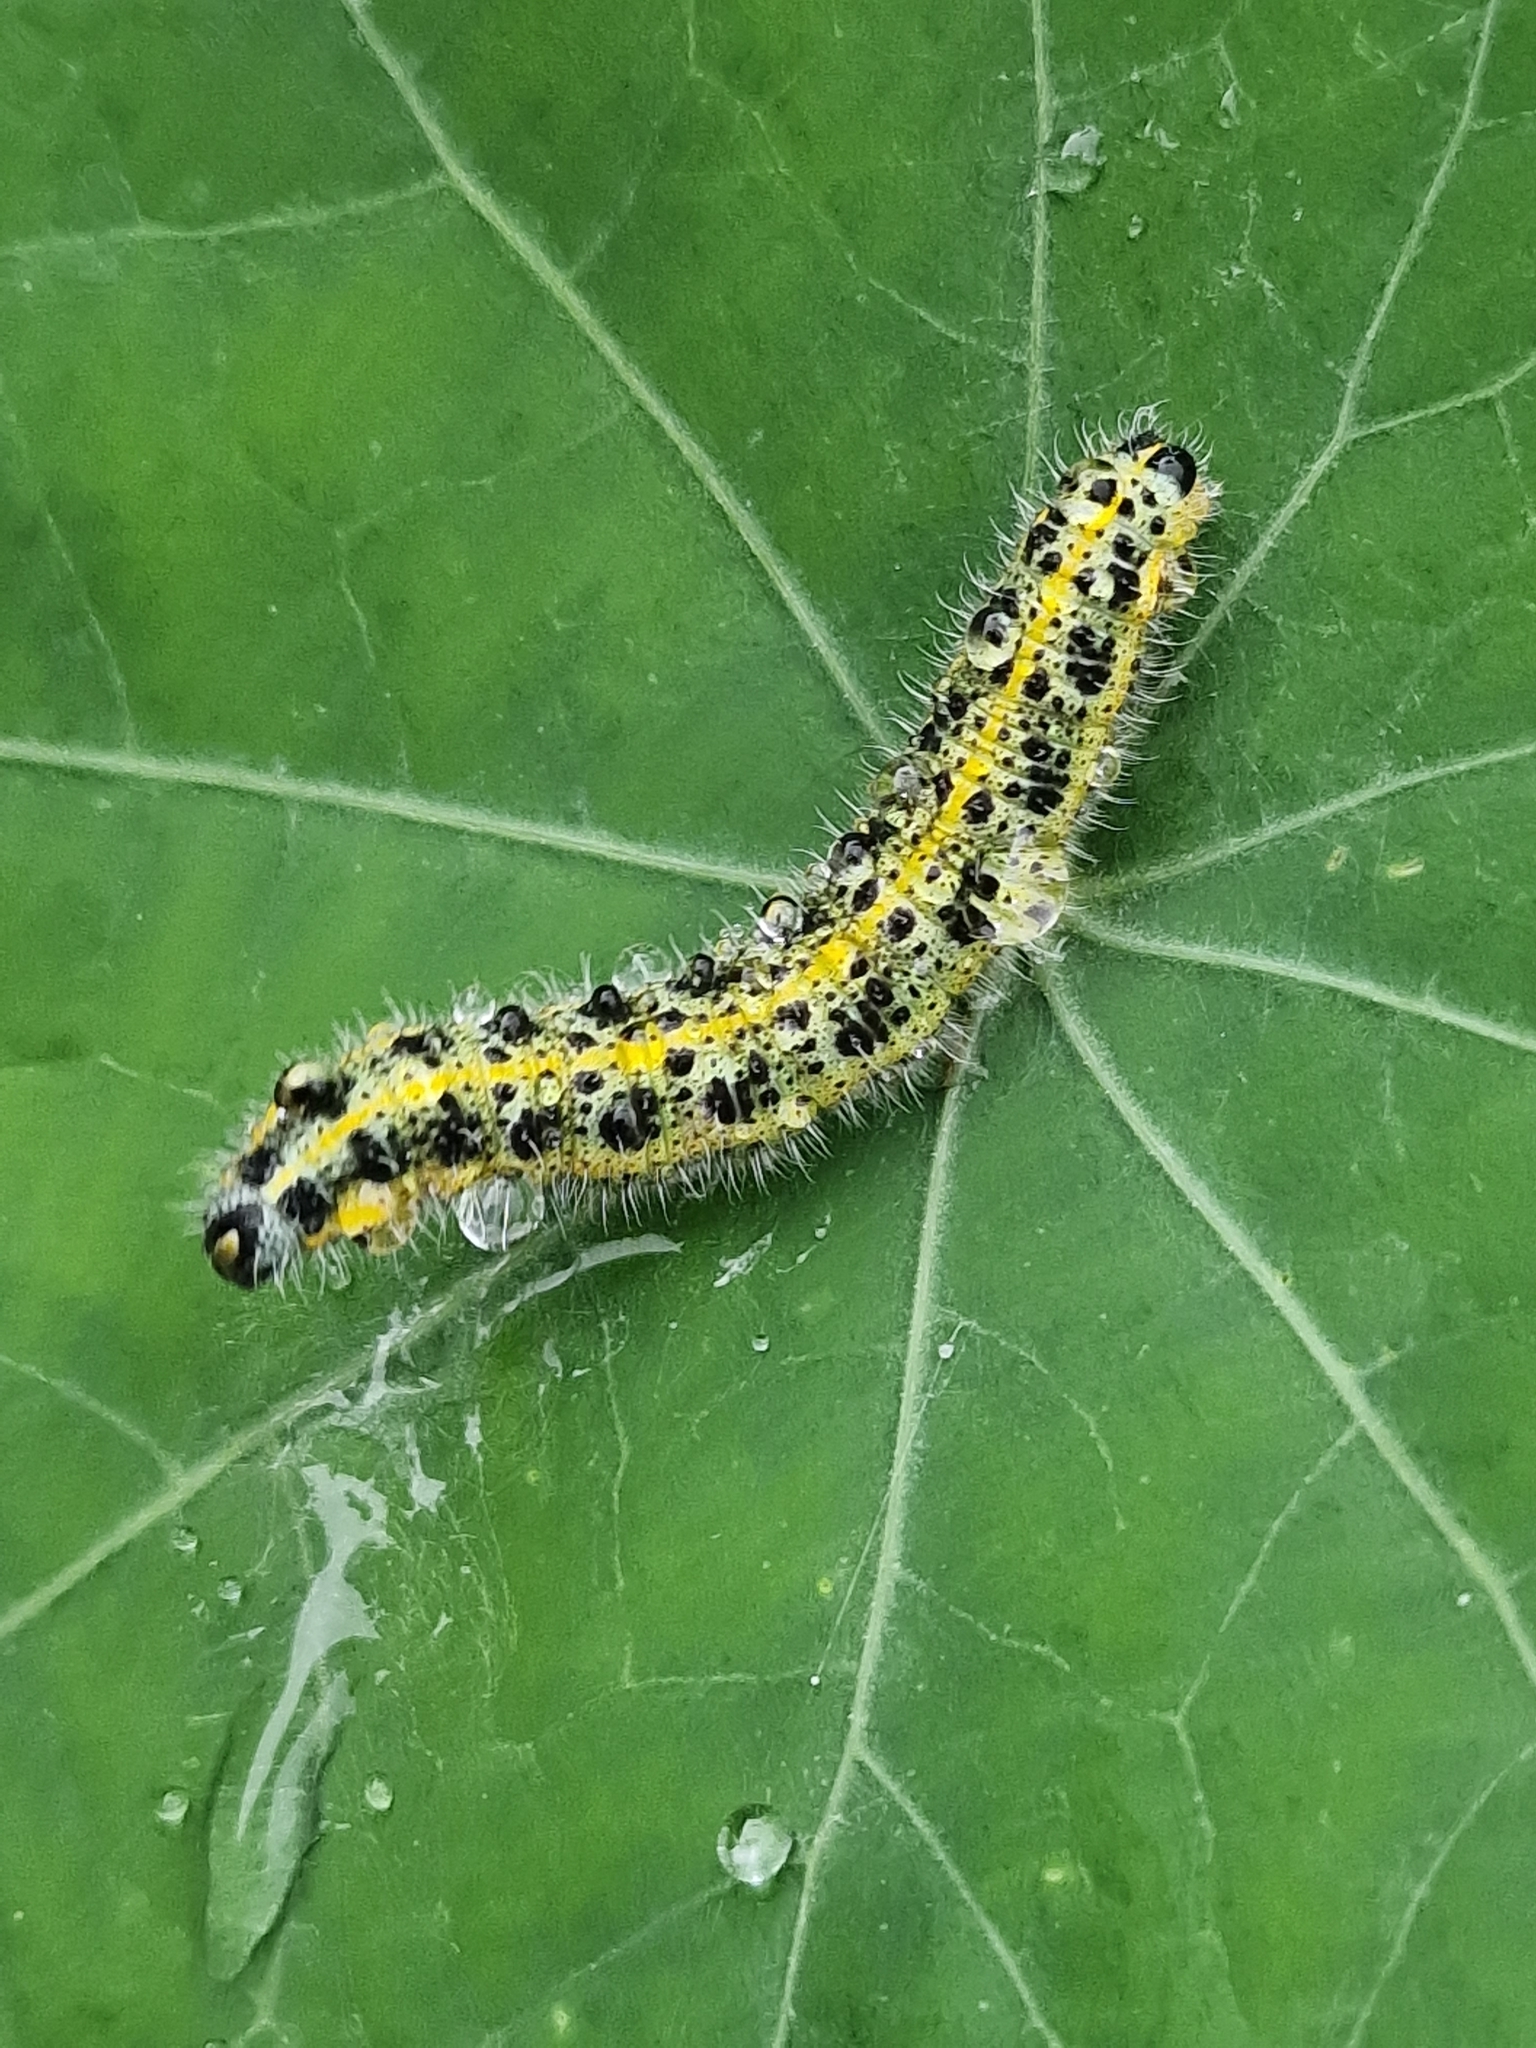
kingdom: Animalia
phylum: Arthropoda
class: Insecta
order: Lepidoptera
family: Pieridae
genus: Pieris
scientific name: Pieris brassicae
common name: Large white
